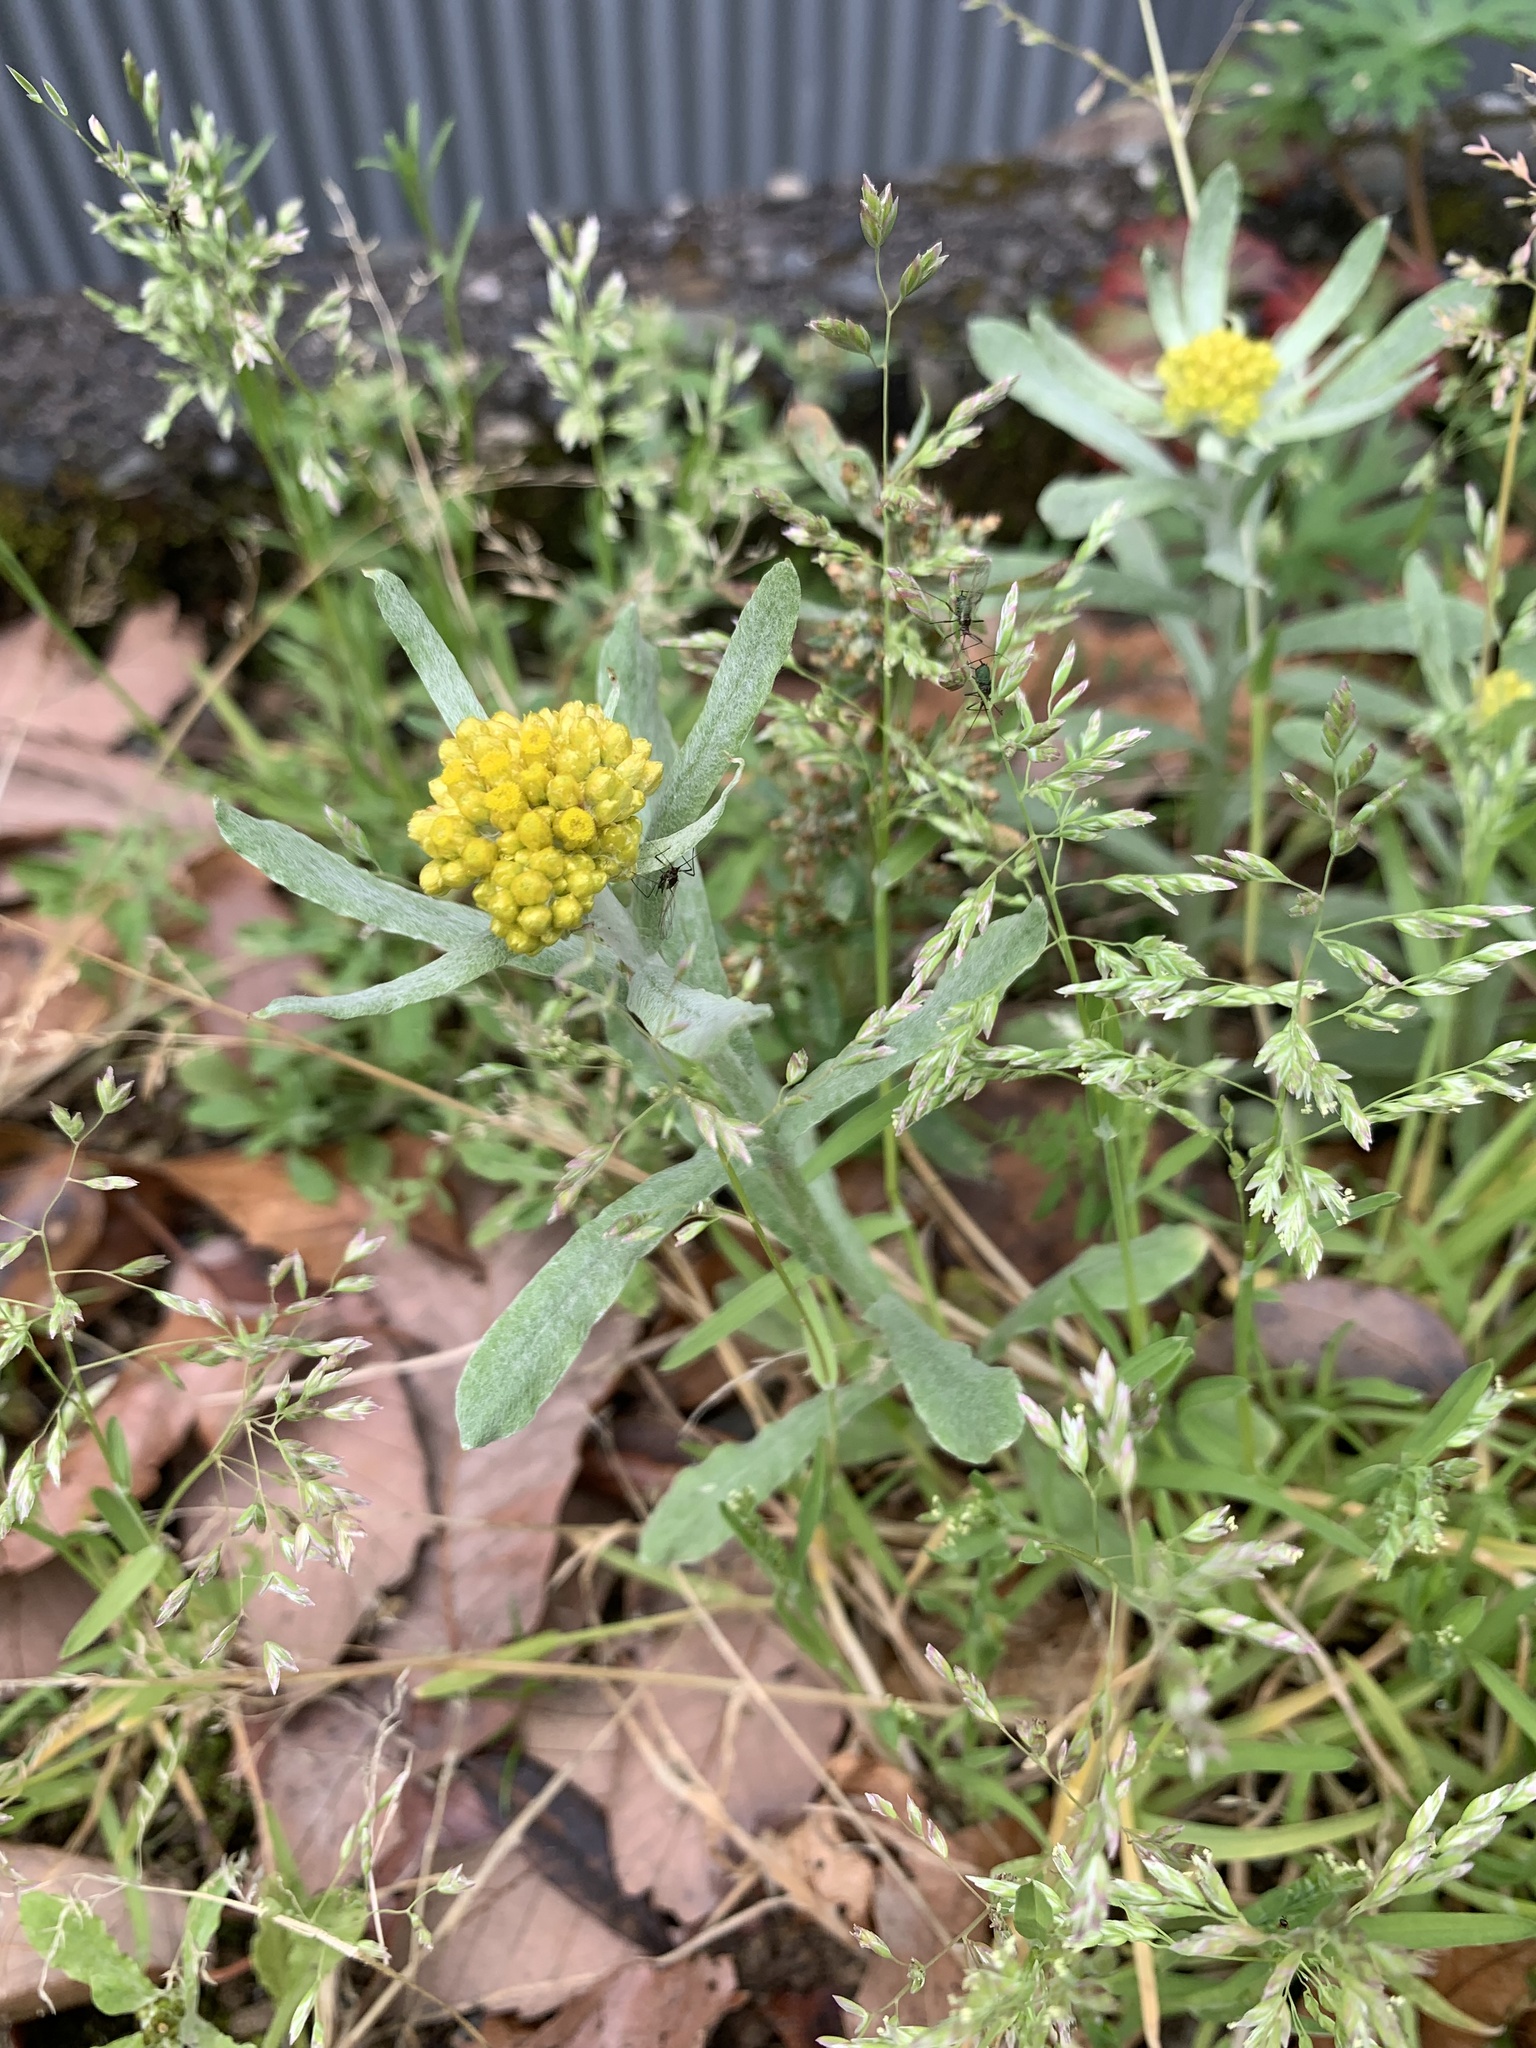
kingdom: Plantae
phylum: Tracheophyta
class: Magnoliopsida
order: Asterales
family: Asteraceae
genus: Pseudognaphalium
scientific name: Pseudognaphalium affine
